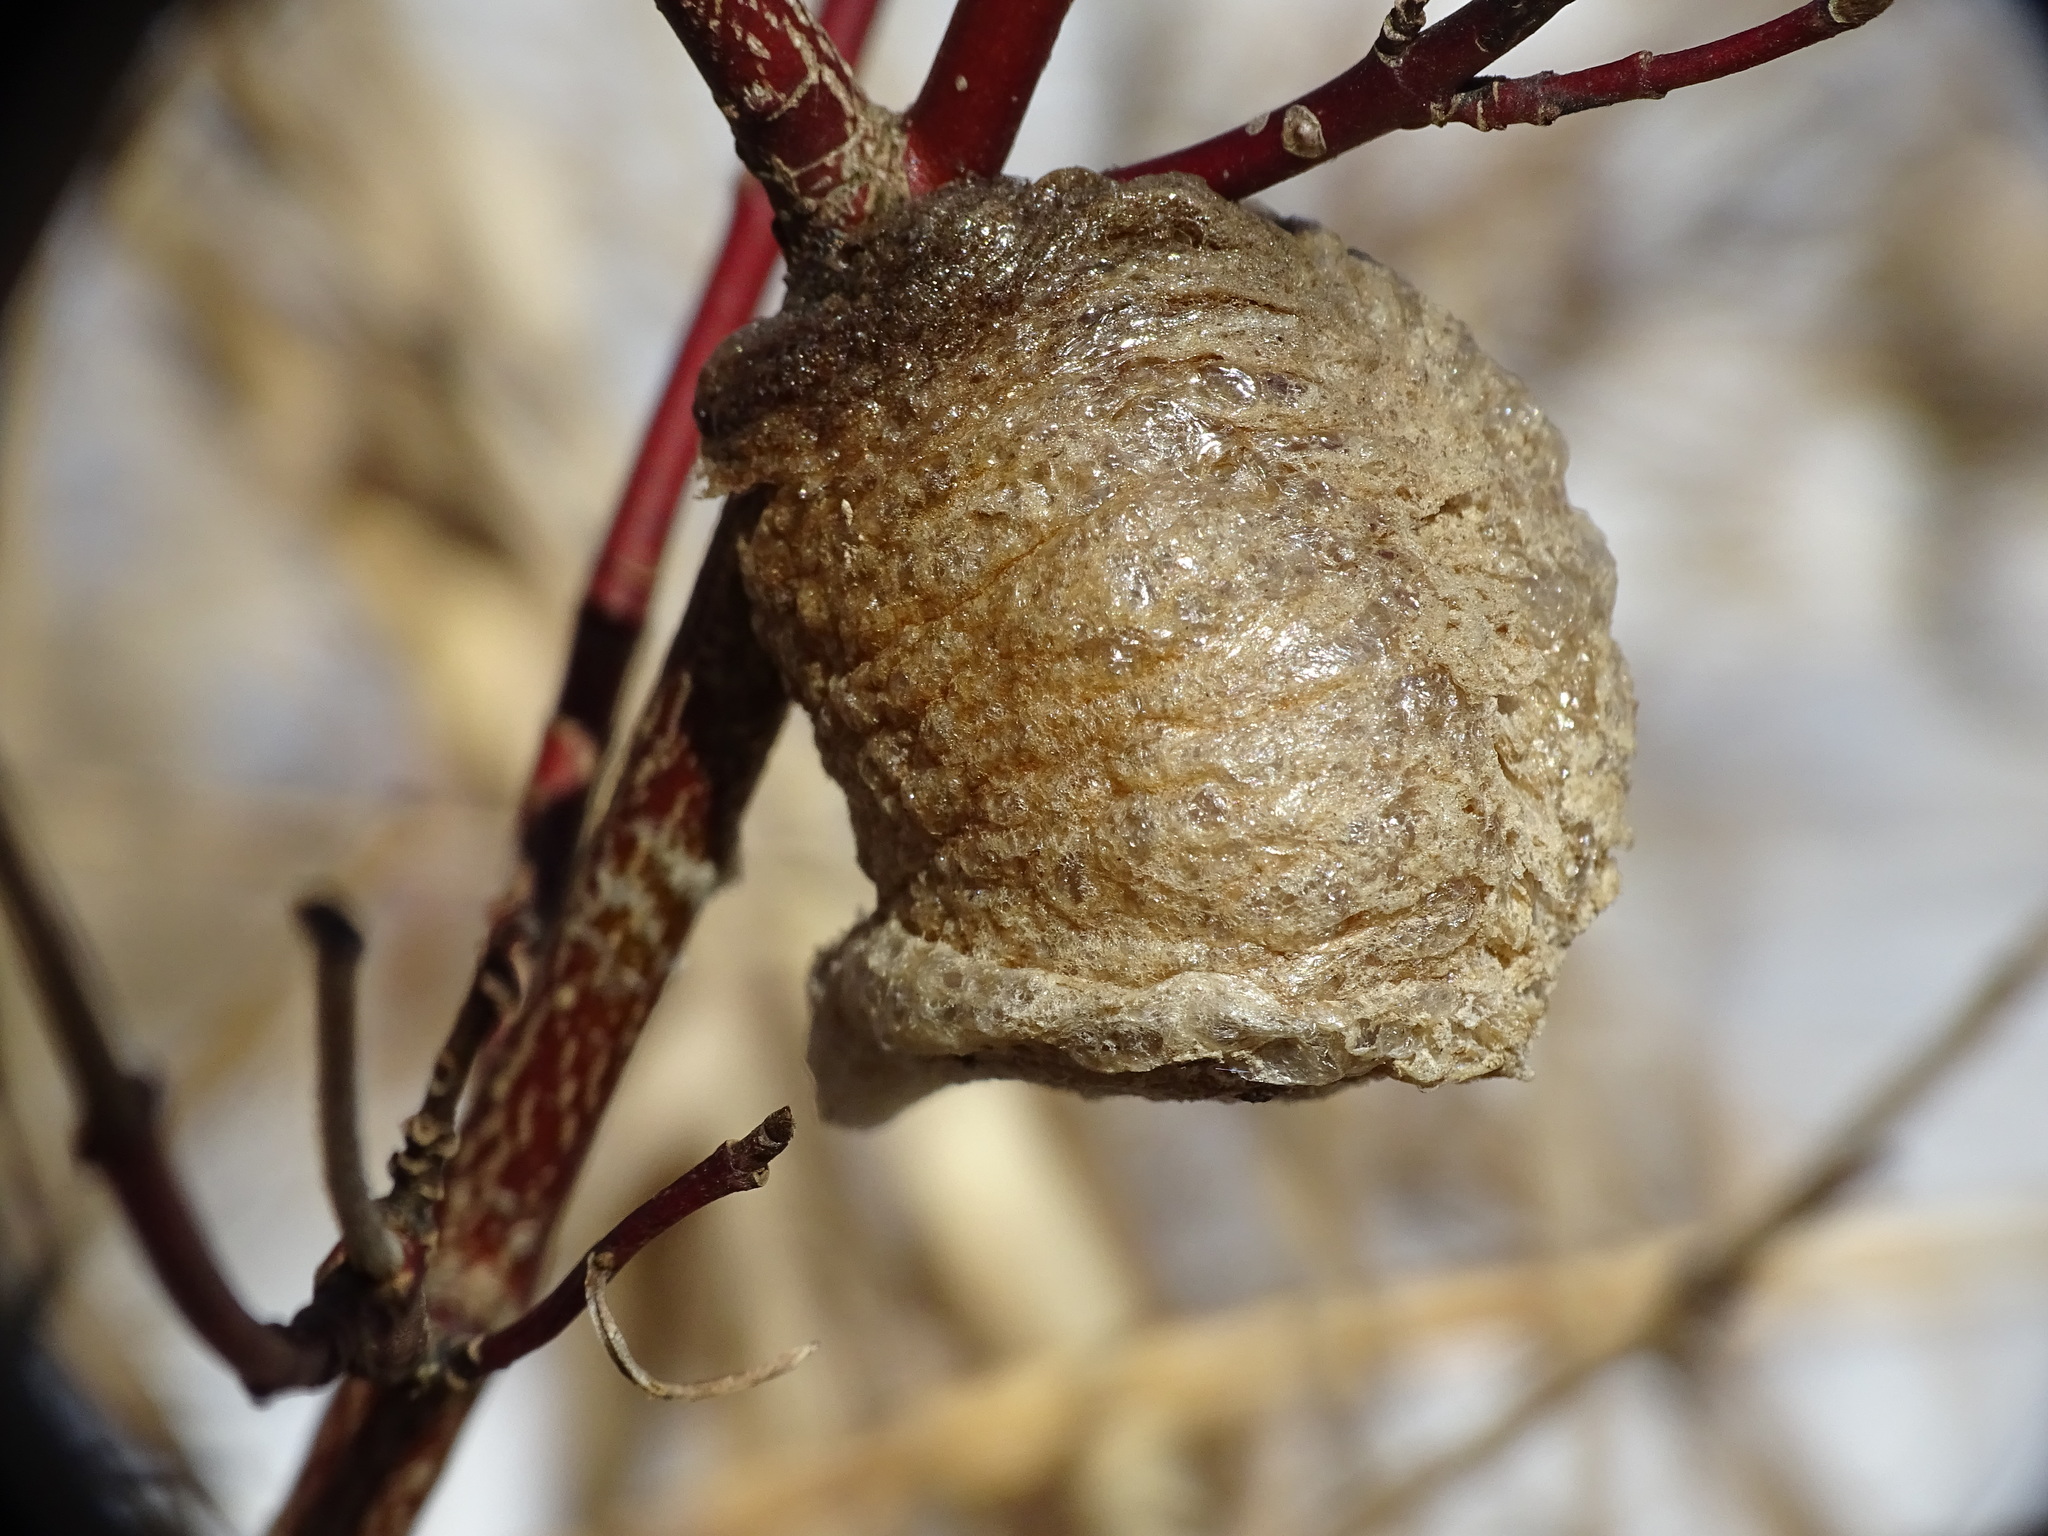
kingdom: Animalia
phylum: Arthropoda
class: Insecta
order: Mantodea
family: Mantidae
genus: Tenodera
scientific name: Tenodera sinensis
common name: Chinese mantis
